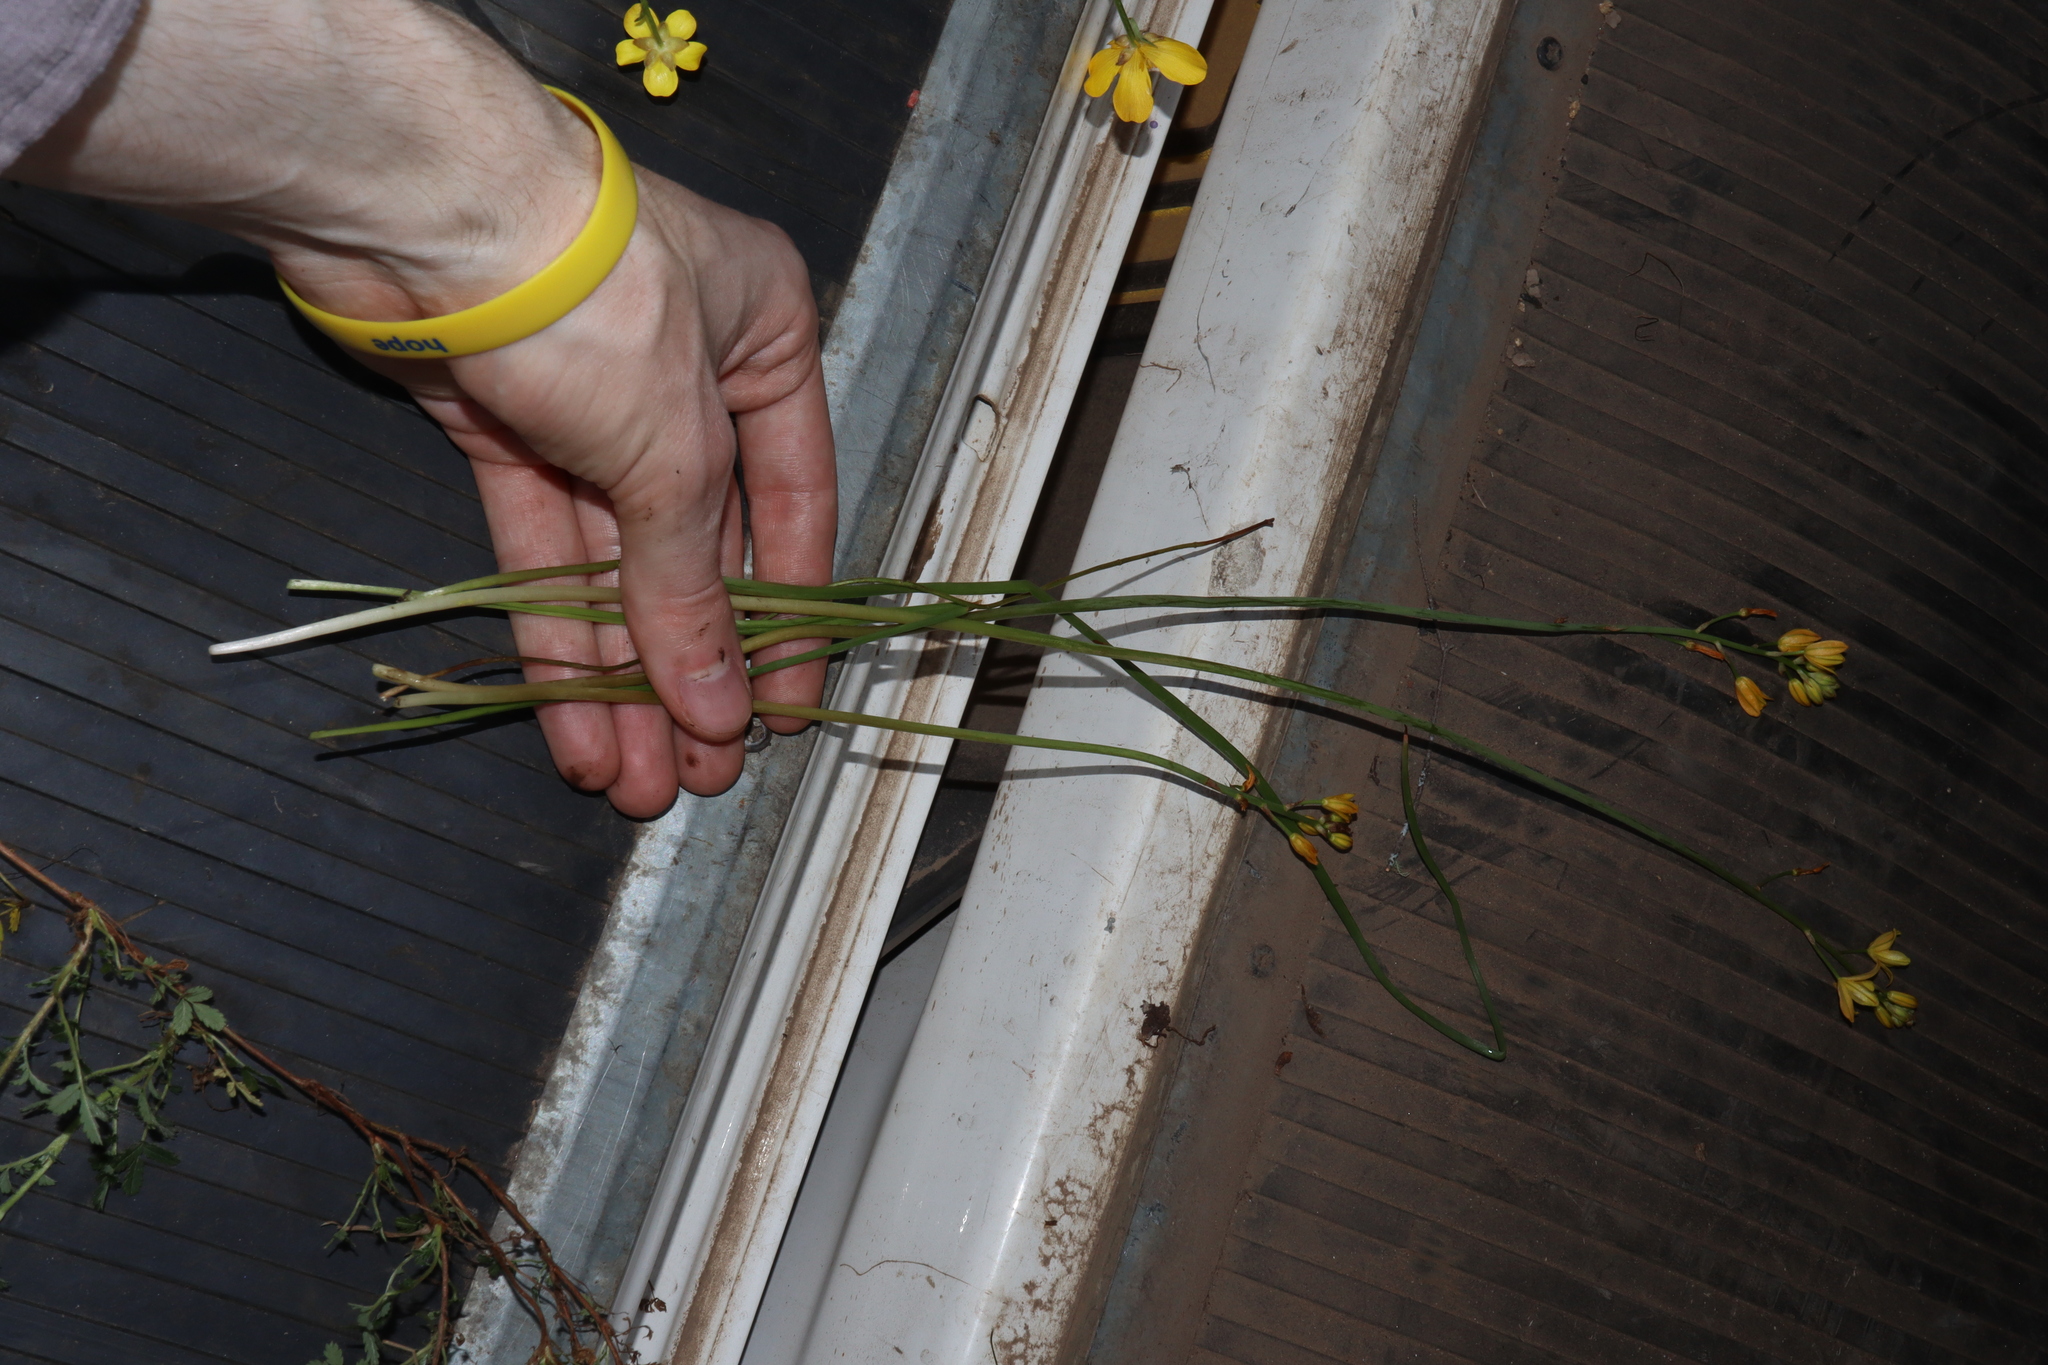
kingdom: Plantae
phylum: Tracheophyta
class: Liliopsida
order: Asparagales
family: Asphodelaceae
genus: Bulbine
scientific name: Bulbine bulbosa
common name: Golden-lily
